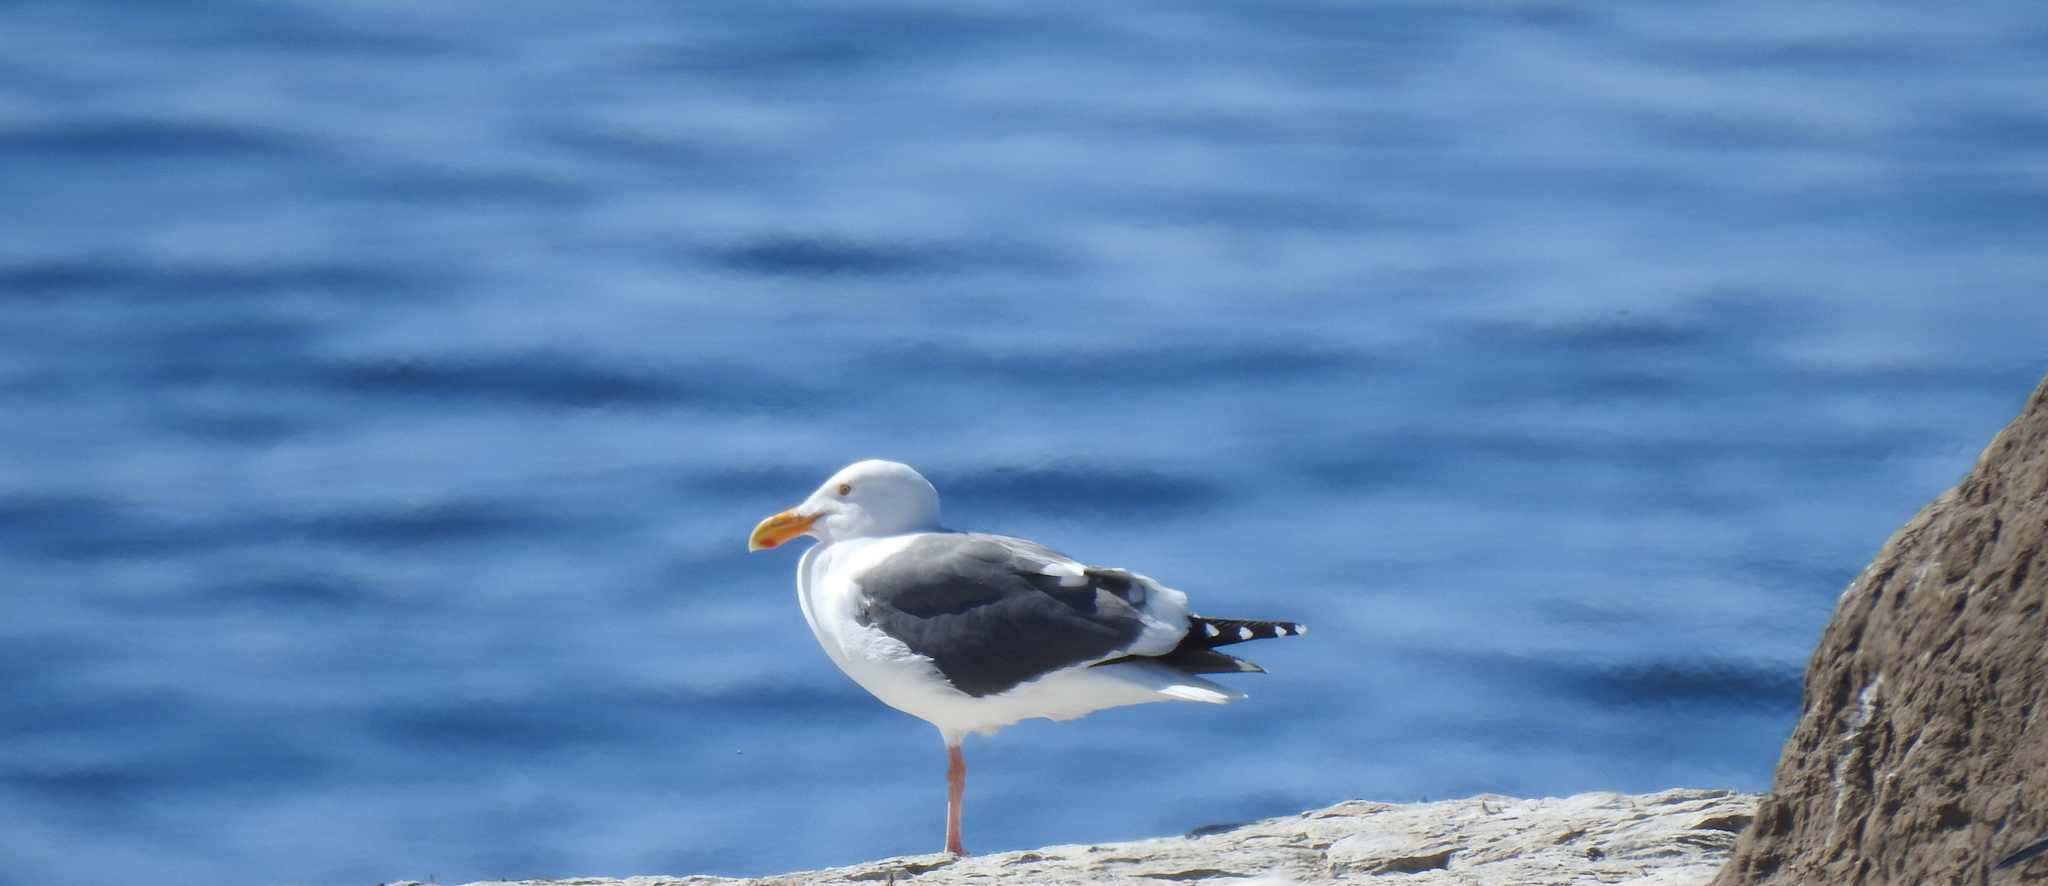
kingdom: Animalia
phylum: Chordata
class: Aves
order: Charadriiformes
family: Laridae
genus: Larus
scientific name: Larus occidentalis
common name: Western gull
